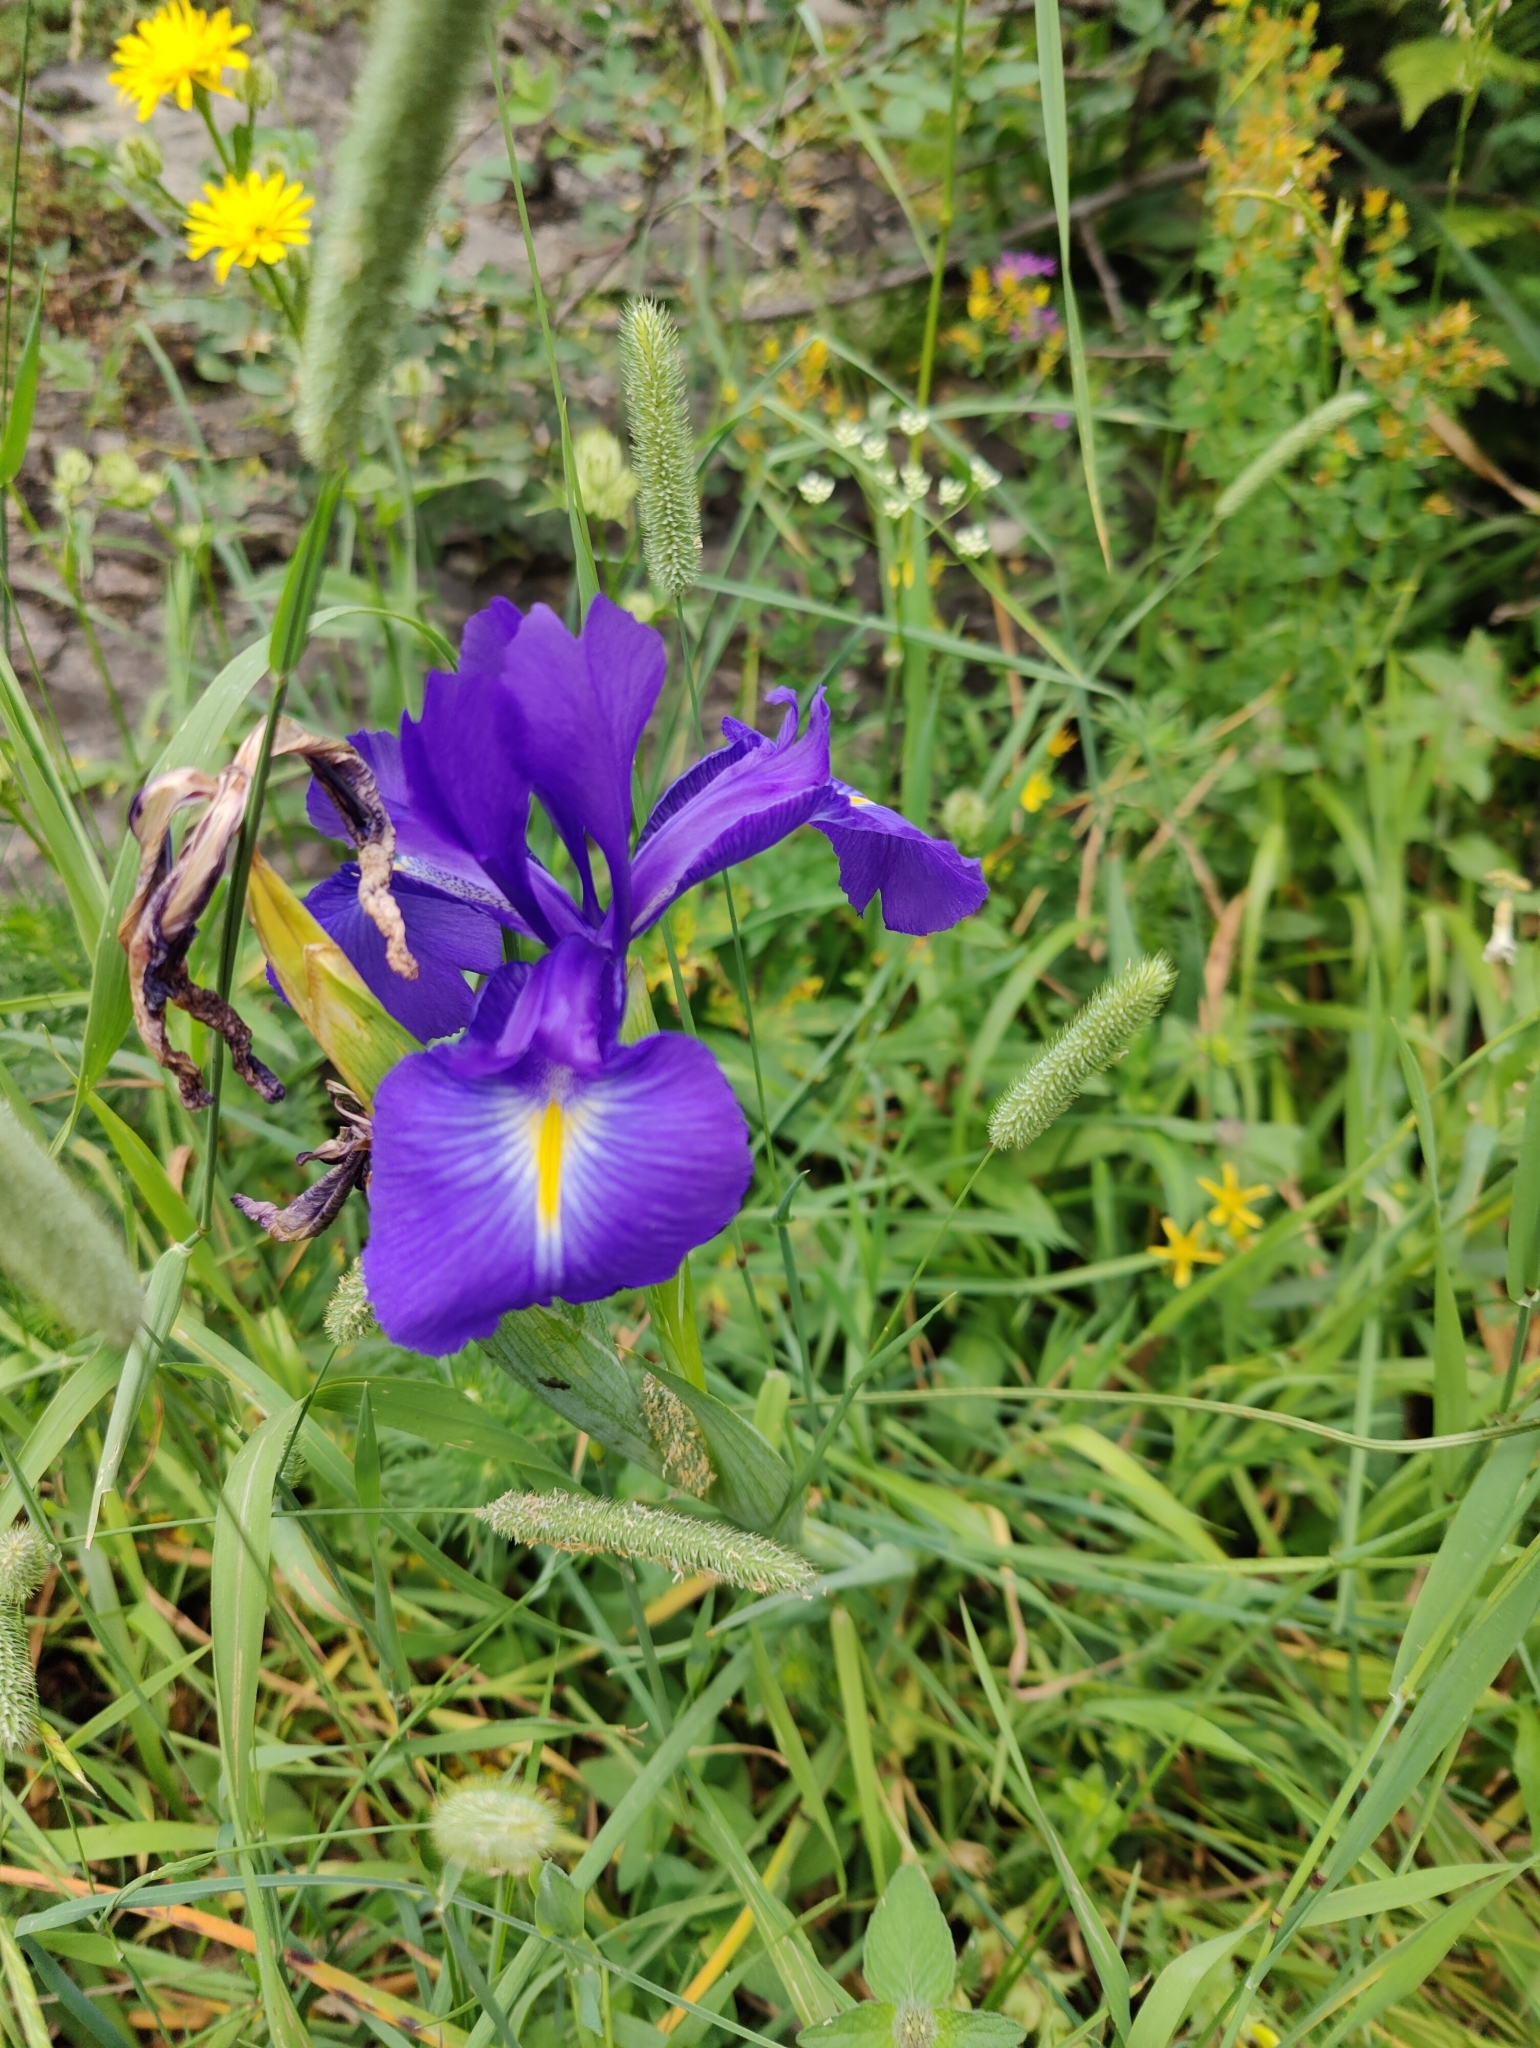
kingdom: Plantae
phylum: Tracheophyta
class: Liliopsida
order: Asparagales
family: Iridaceae
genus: Iris
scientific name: Iris
